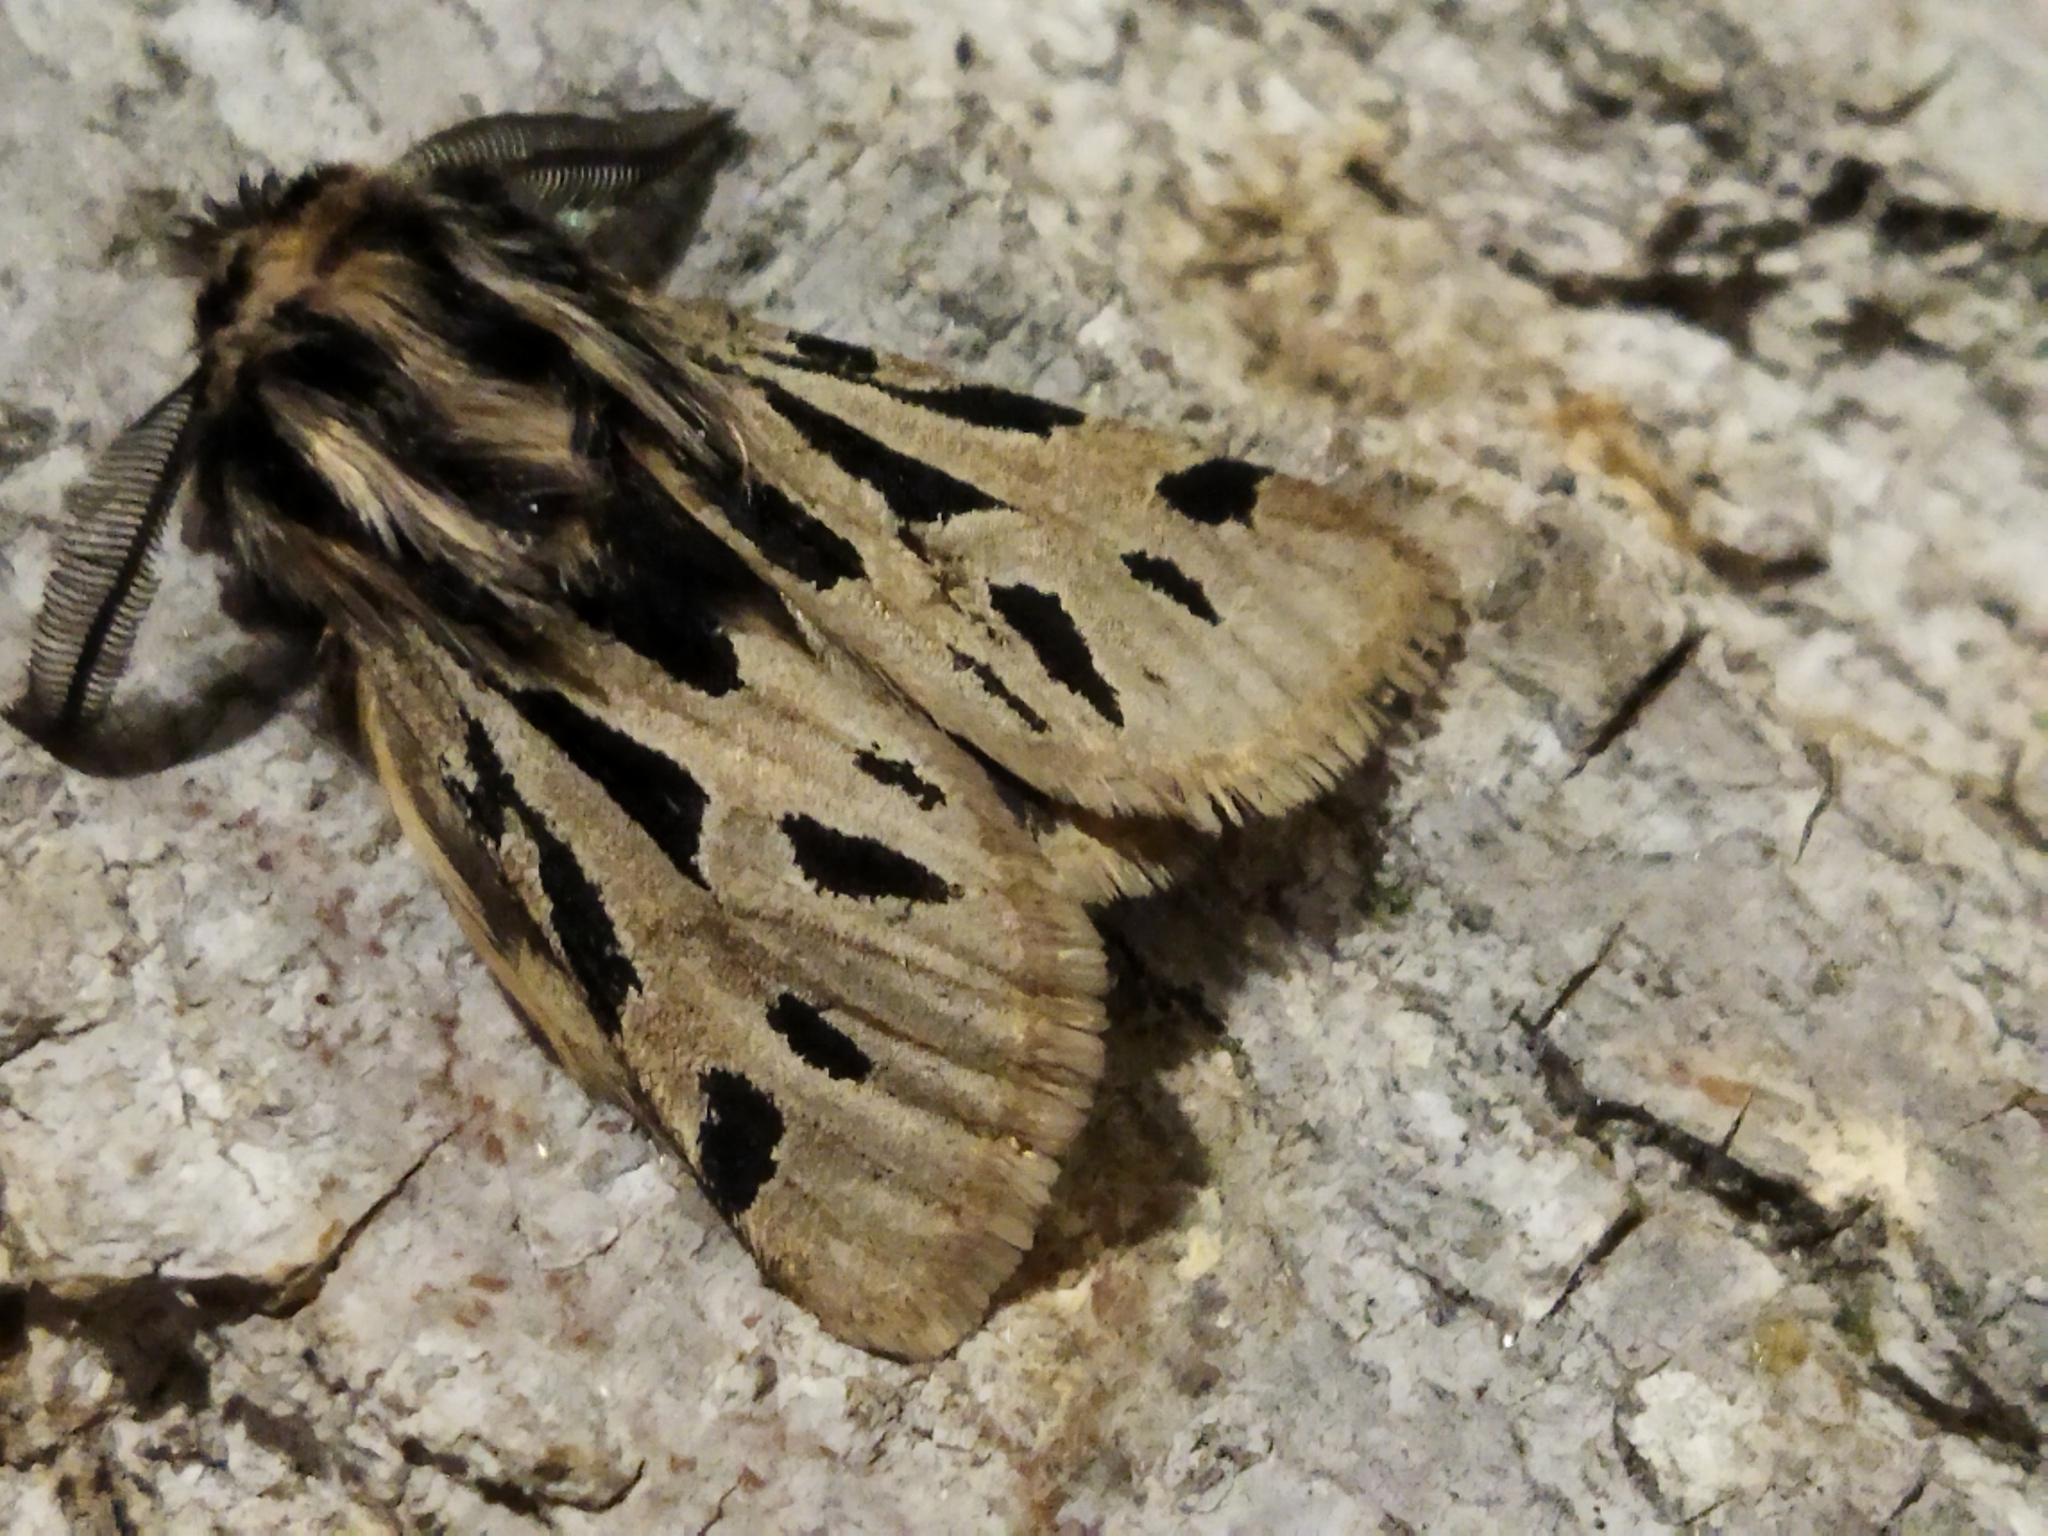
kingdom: Animalia
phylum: Arthropoda
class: Insecta
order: Lepidoptera
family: Erebidae
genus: Ocnogyna
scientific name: Ocnogyna parasita
